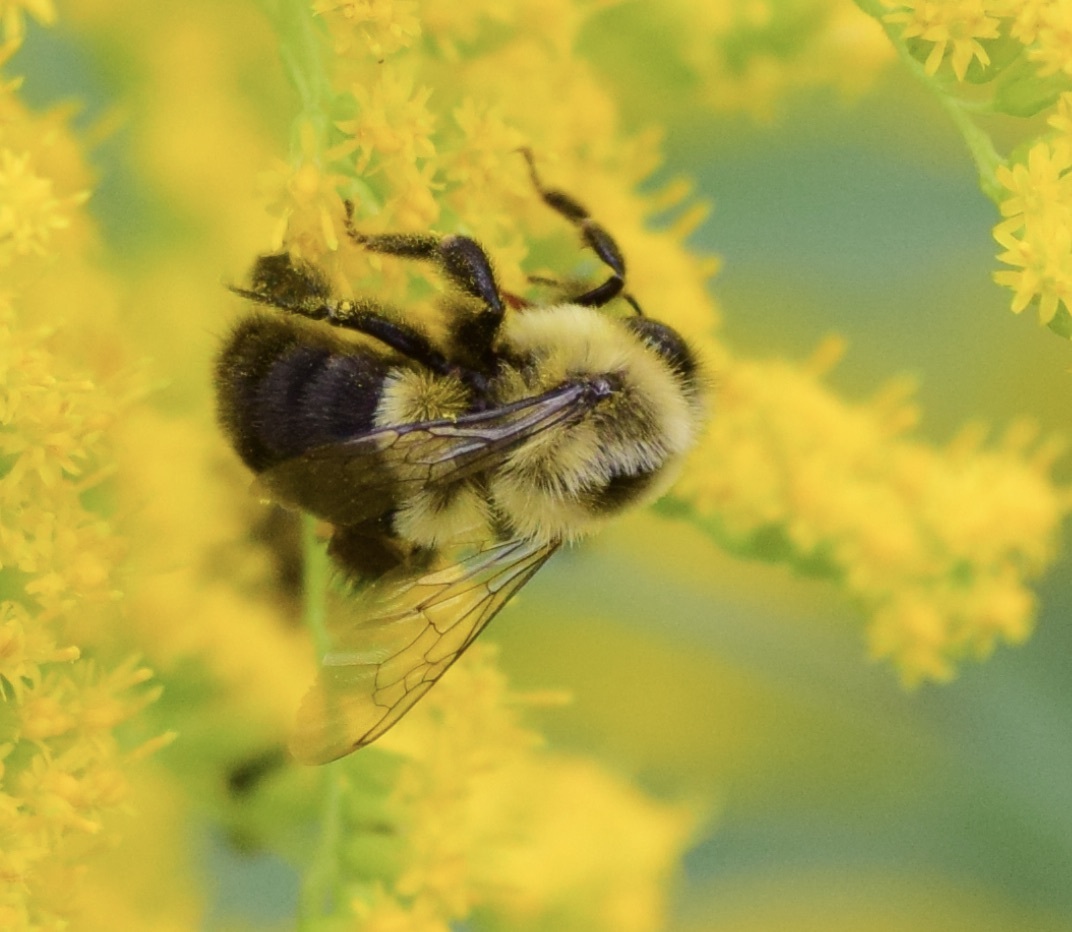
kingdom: Animalia
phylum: Arthropoda
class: Insecta
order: Hymenoptera
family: Apidae
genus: Bombus
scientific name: Bombus impatiens
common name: Common eastern bumble bee
